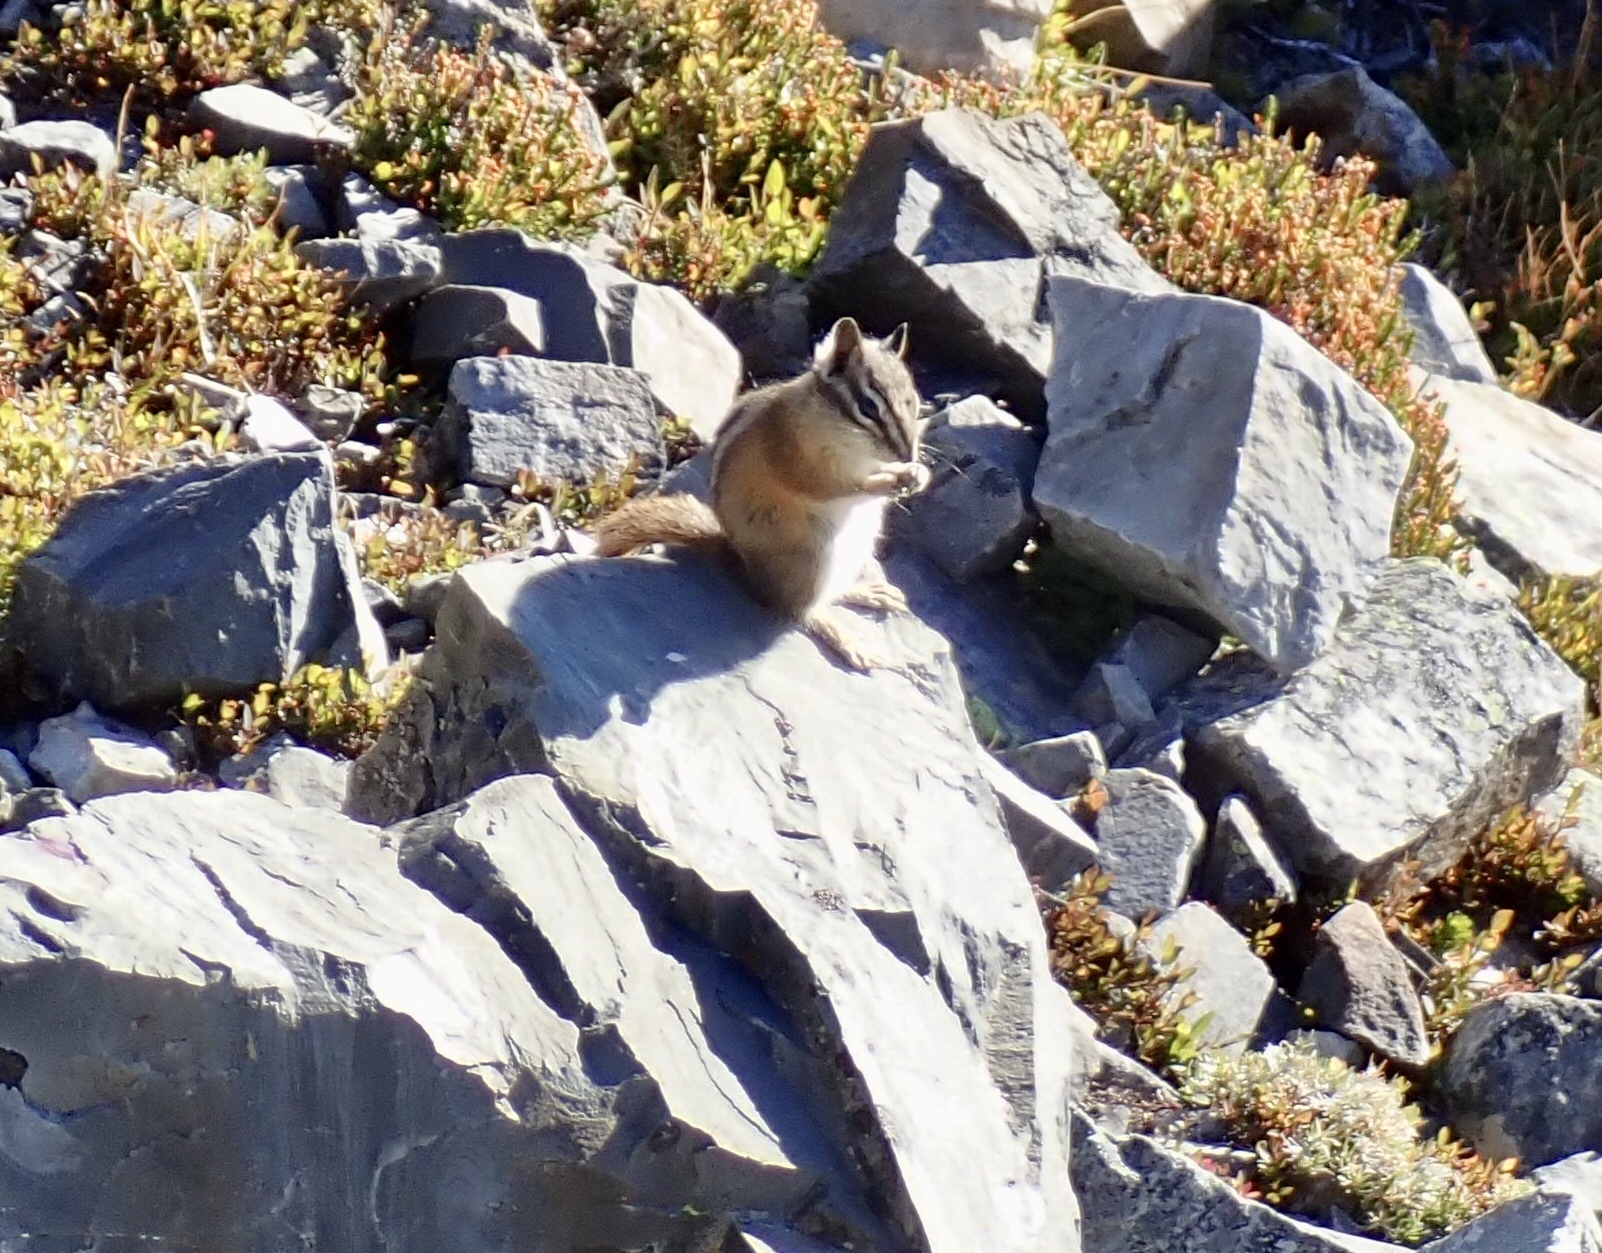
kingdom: Animalia
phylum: Chordata
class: Mammalia
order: Rodentia
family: Sciuridae
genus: Tamias
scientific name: Tamias amoenus
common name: Yellow-pine chipmunk
